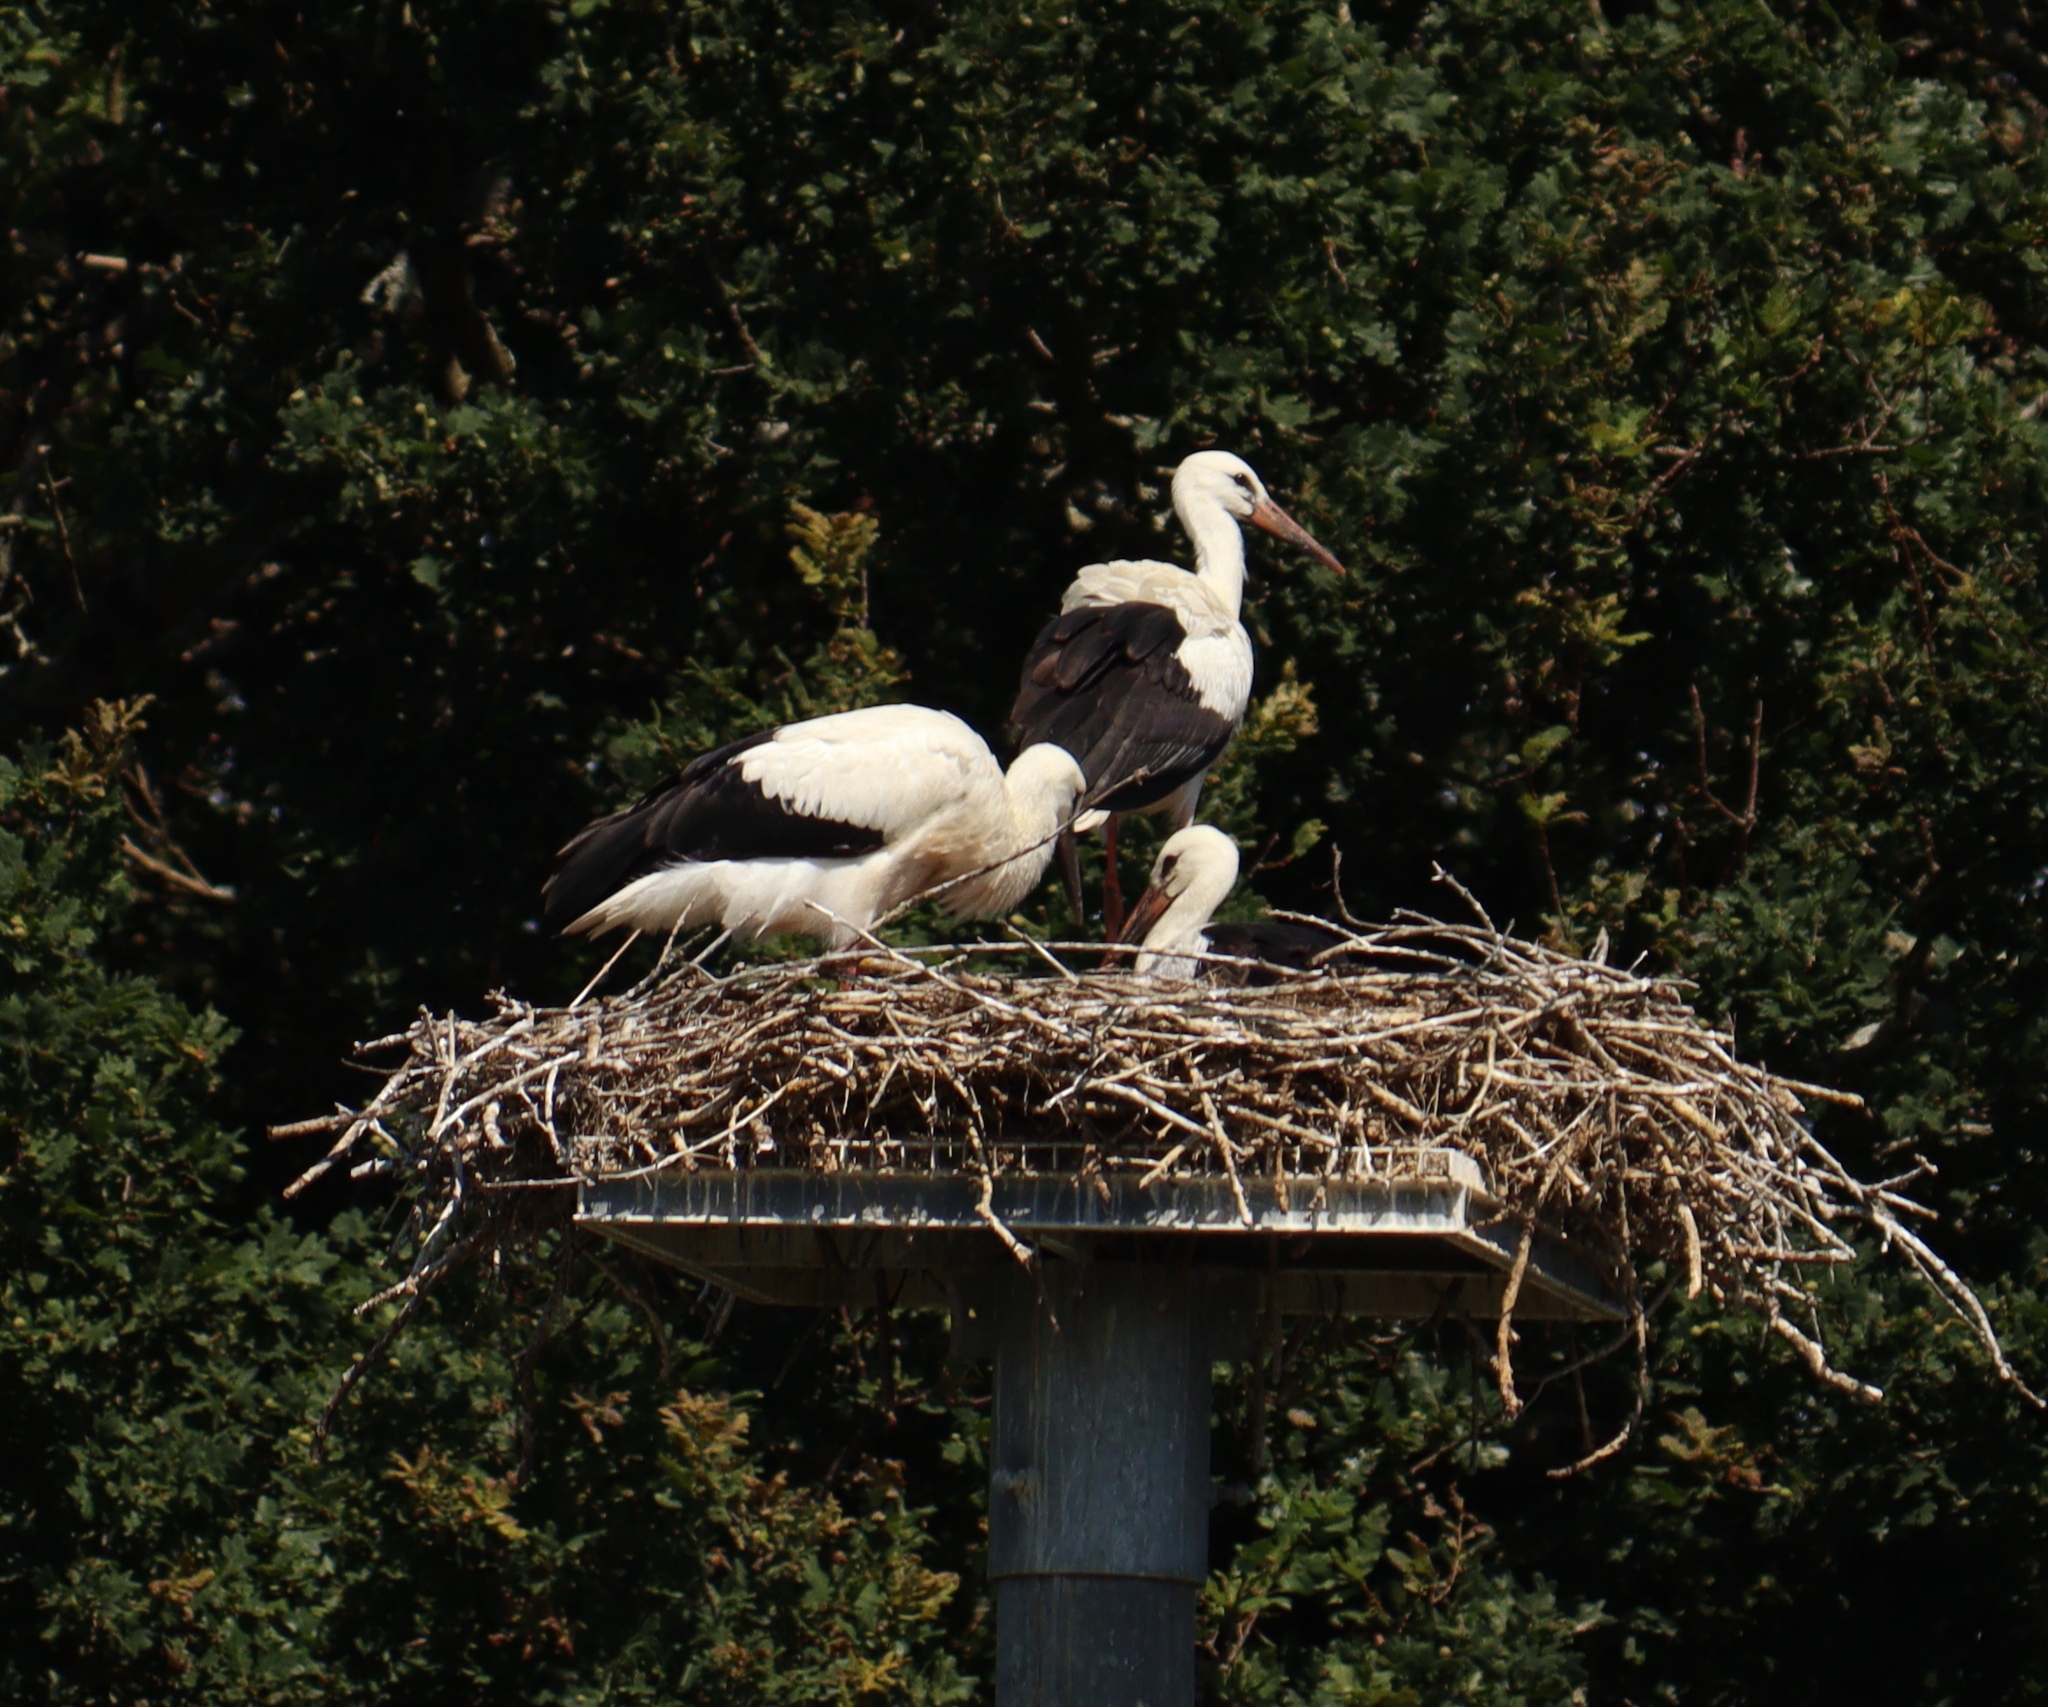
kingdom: Animalia
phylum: Chordata
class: Aves
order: Ciconiiformes
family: Ciconiidae
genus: Ciconia
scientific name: Ciconia ciconia
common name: White stork
